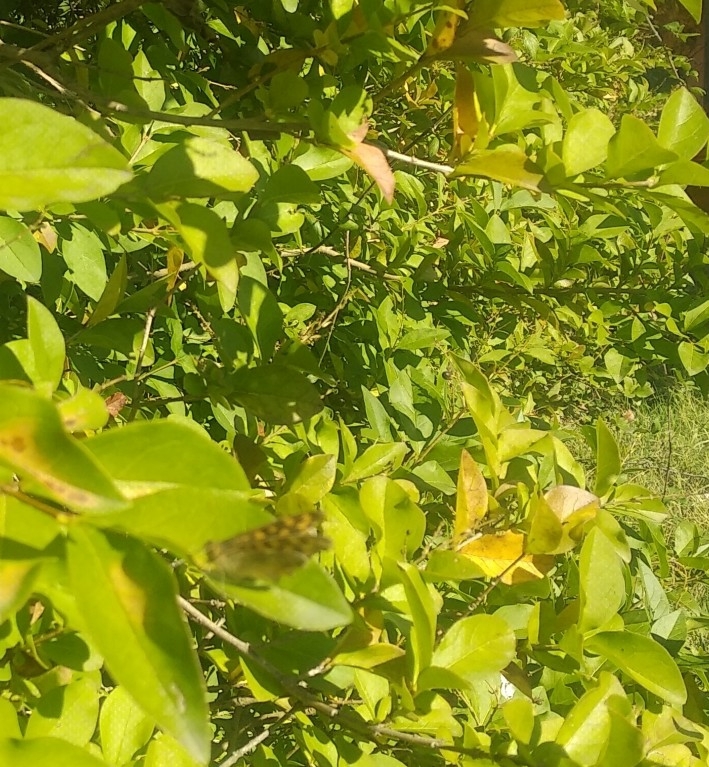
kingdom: Animalia
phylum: Arthropoda
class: Insecta
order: Lepidoptera
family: Nymphalidae
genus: Pararge
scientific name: Pararge aegeria
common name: Speckled wood
